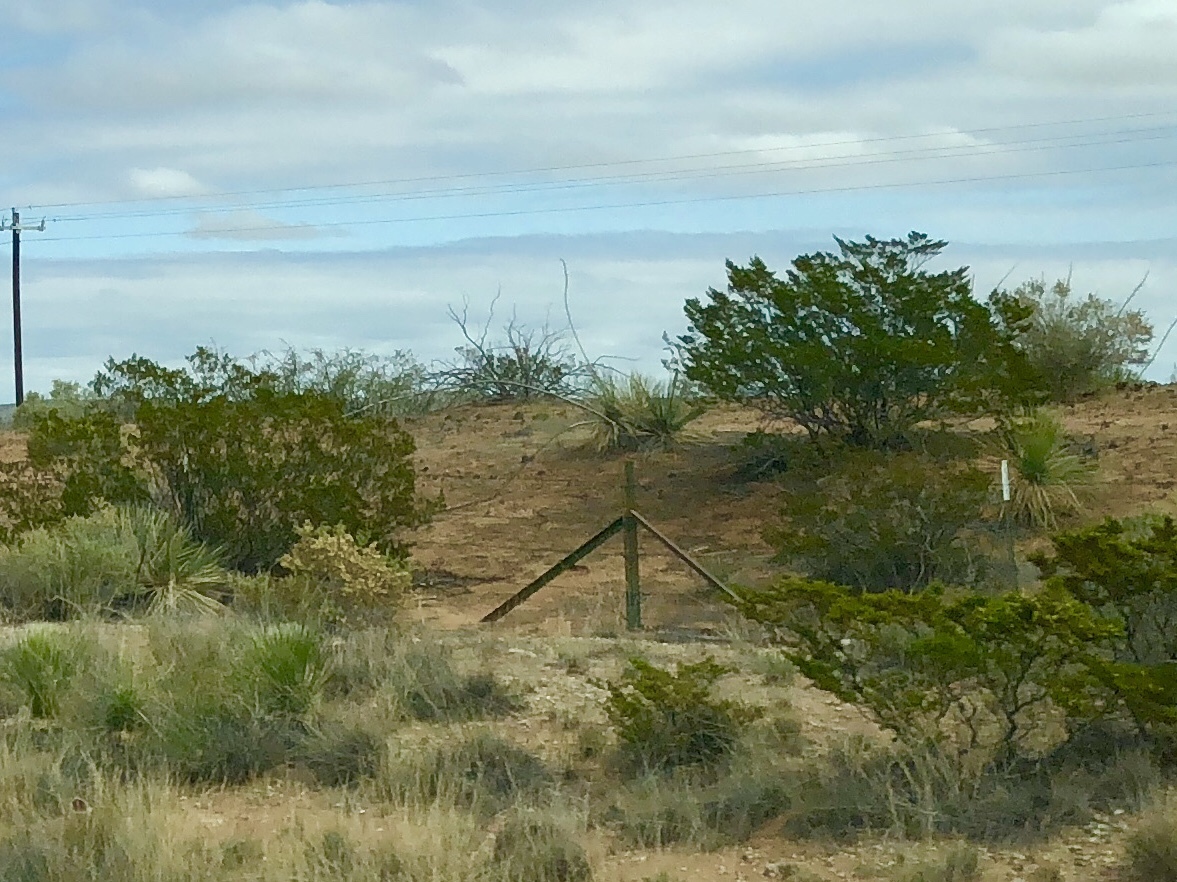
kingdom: Plantae
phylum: Tracheophyta
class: Magnoliopsida
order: Zygophyllales
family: Zygophyllaceae
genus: Larrea
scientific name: Larrea tridentata
